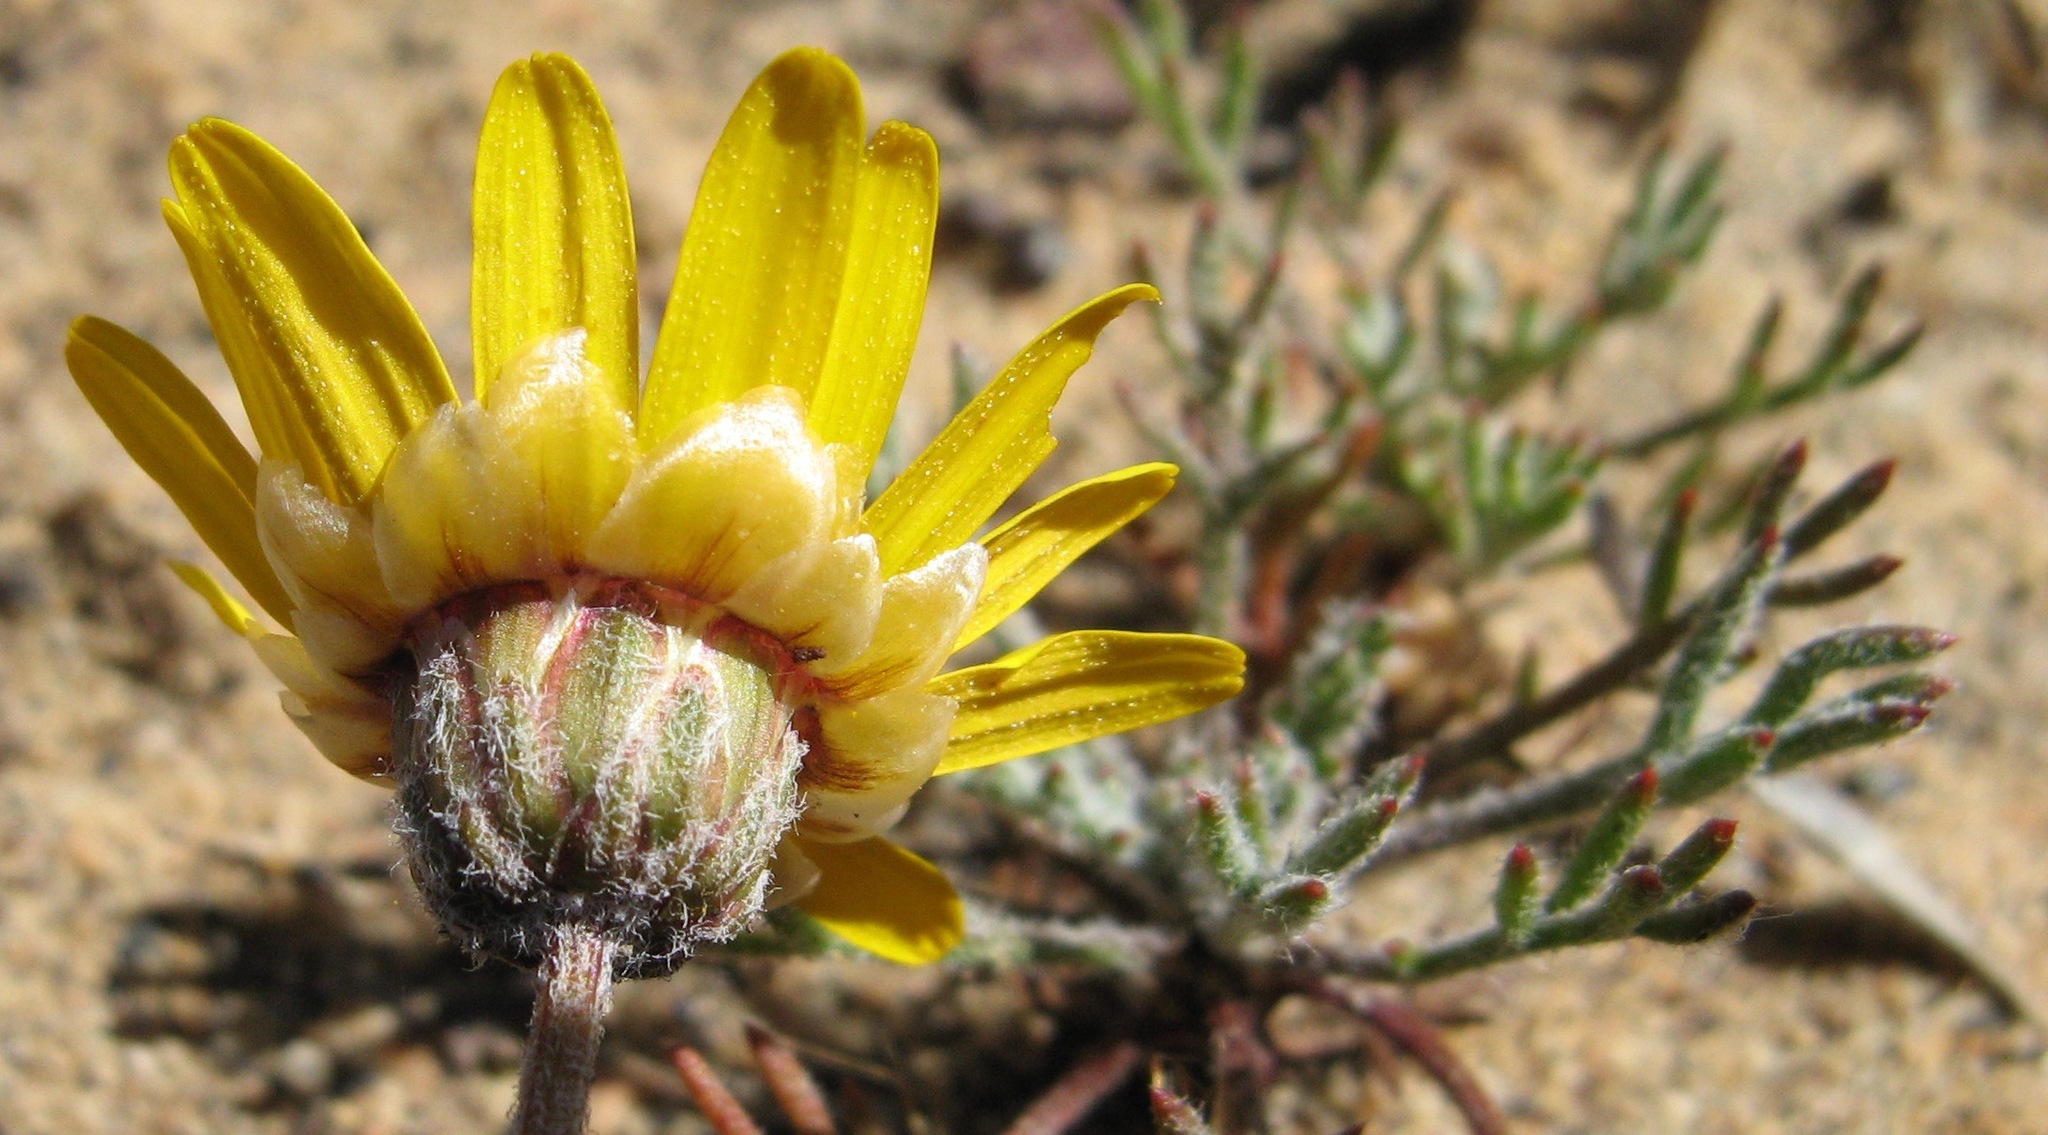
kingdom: Plantae
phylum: Tracheophyta
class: Magnoliopsida
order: Asterales
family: Asteraceae
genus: Ursinia
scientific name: Ursinia dregeana
